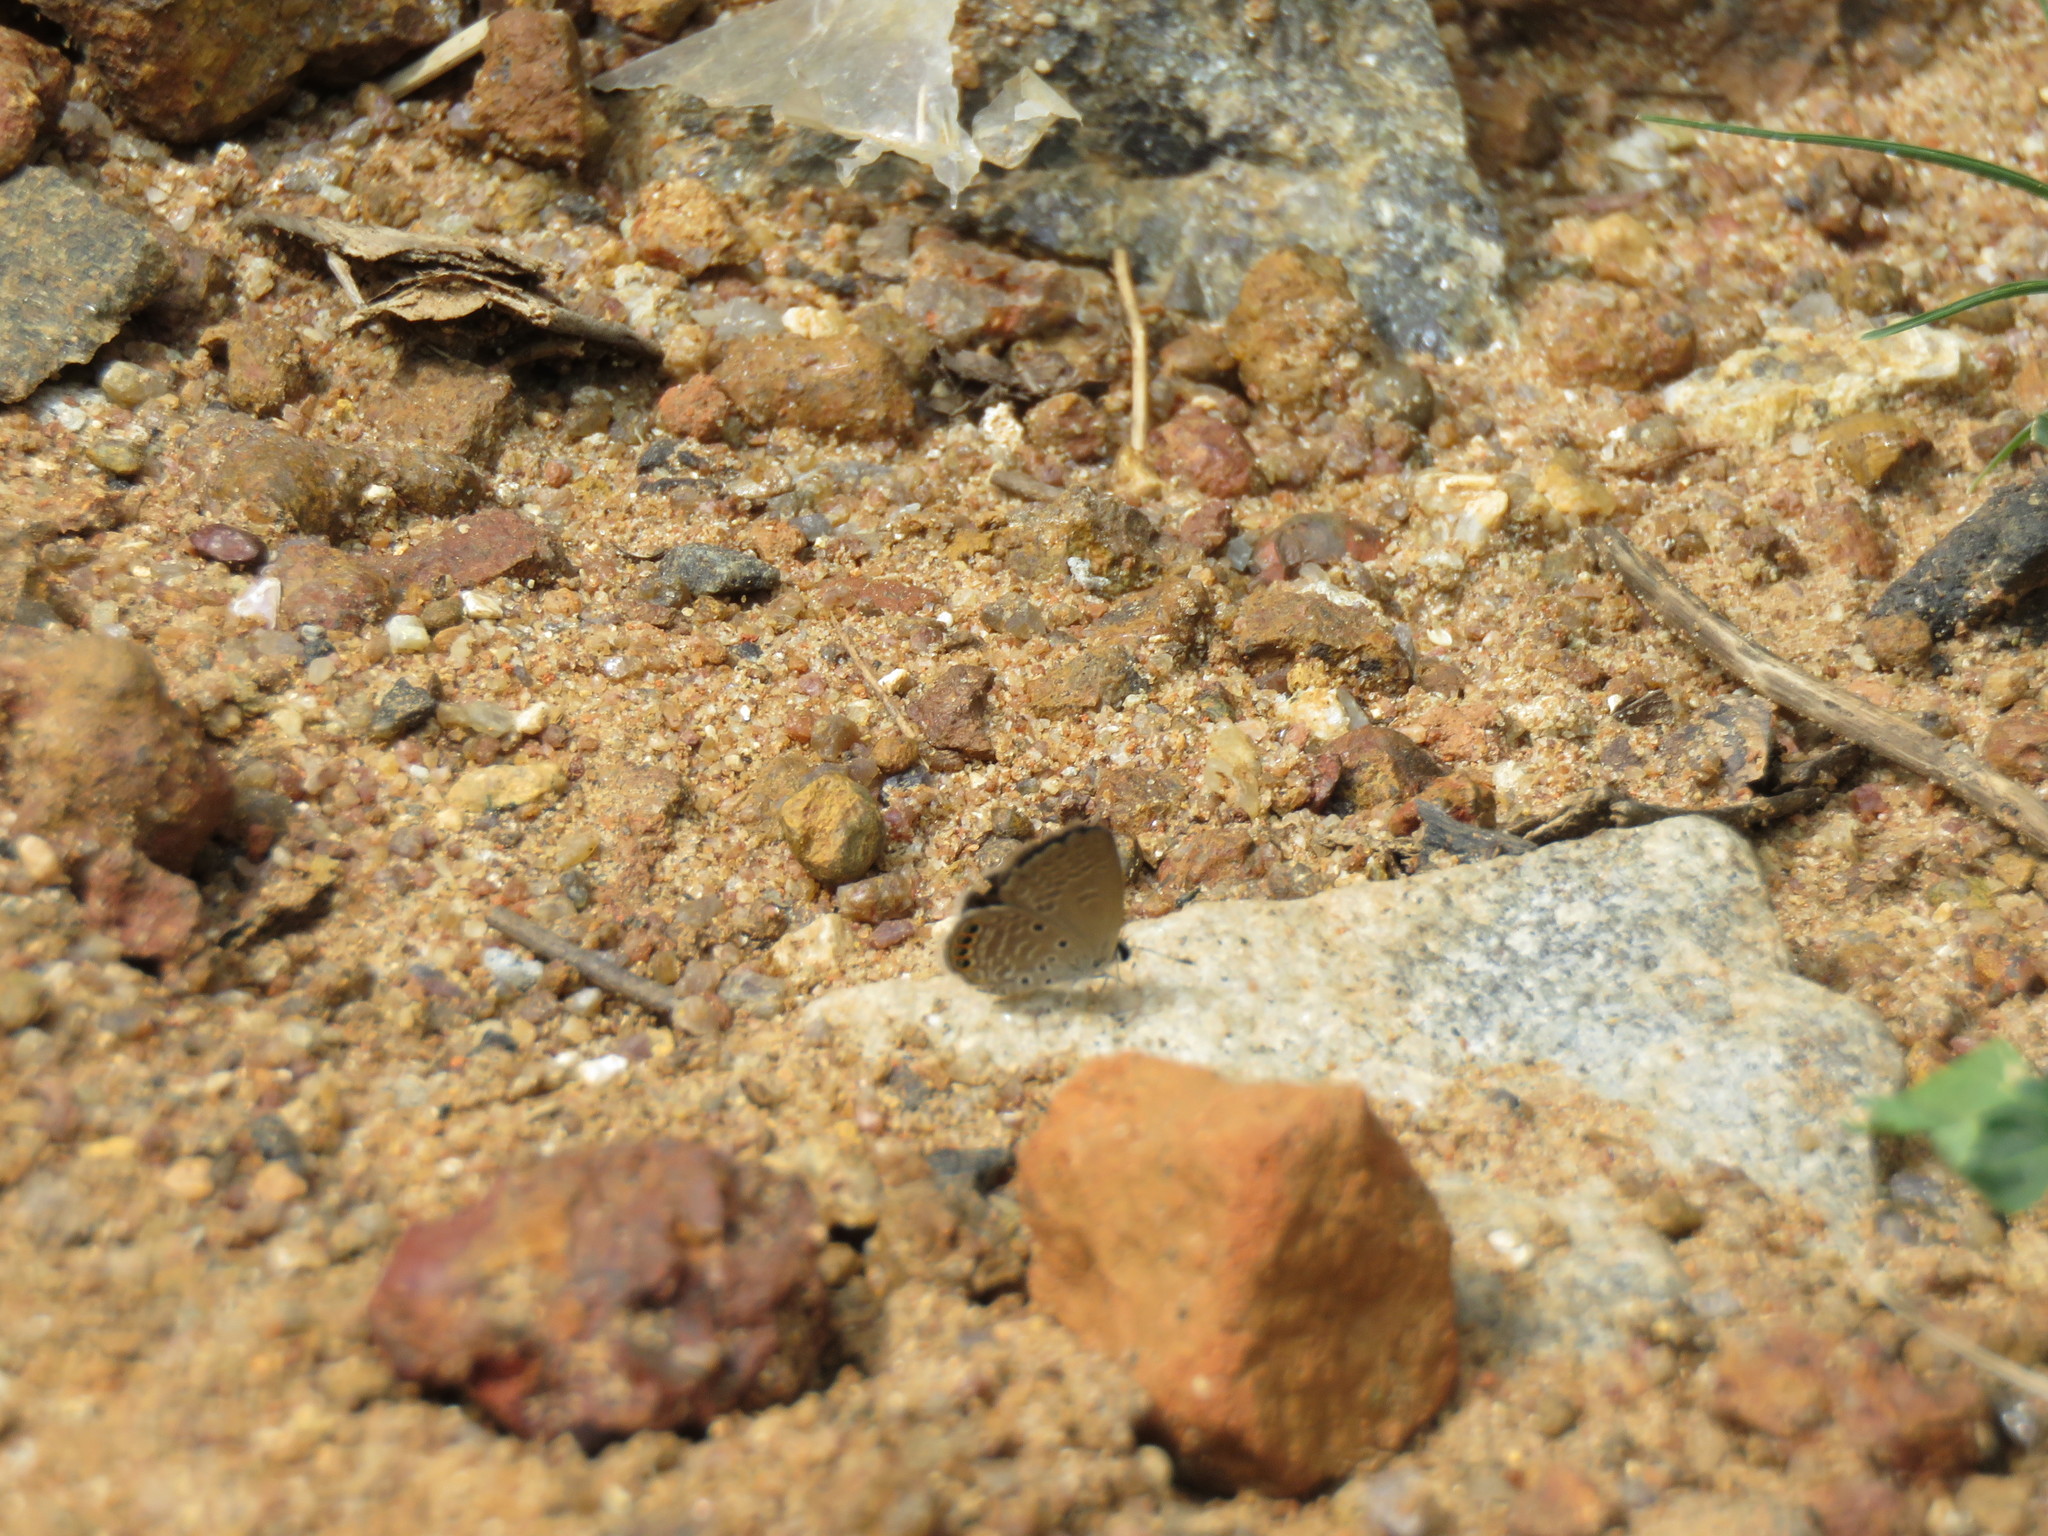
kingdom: Animalia
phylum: Arthropoda
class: Insecta
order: Lepidoptera
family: Lycaenidae
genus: Freyeria
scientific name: Freyeria putli
